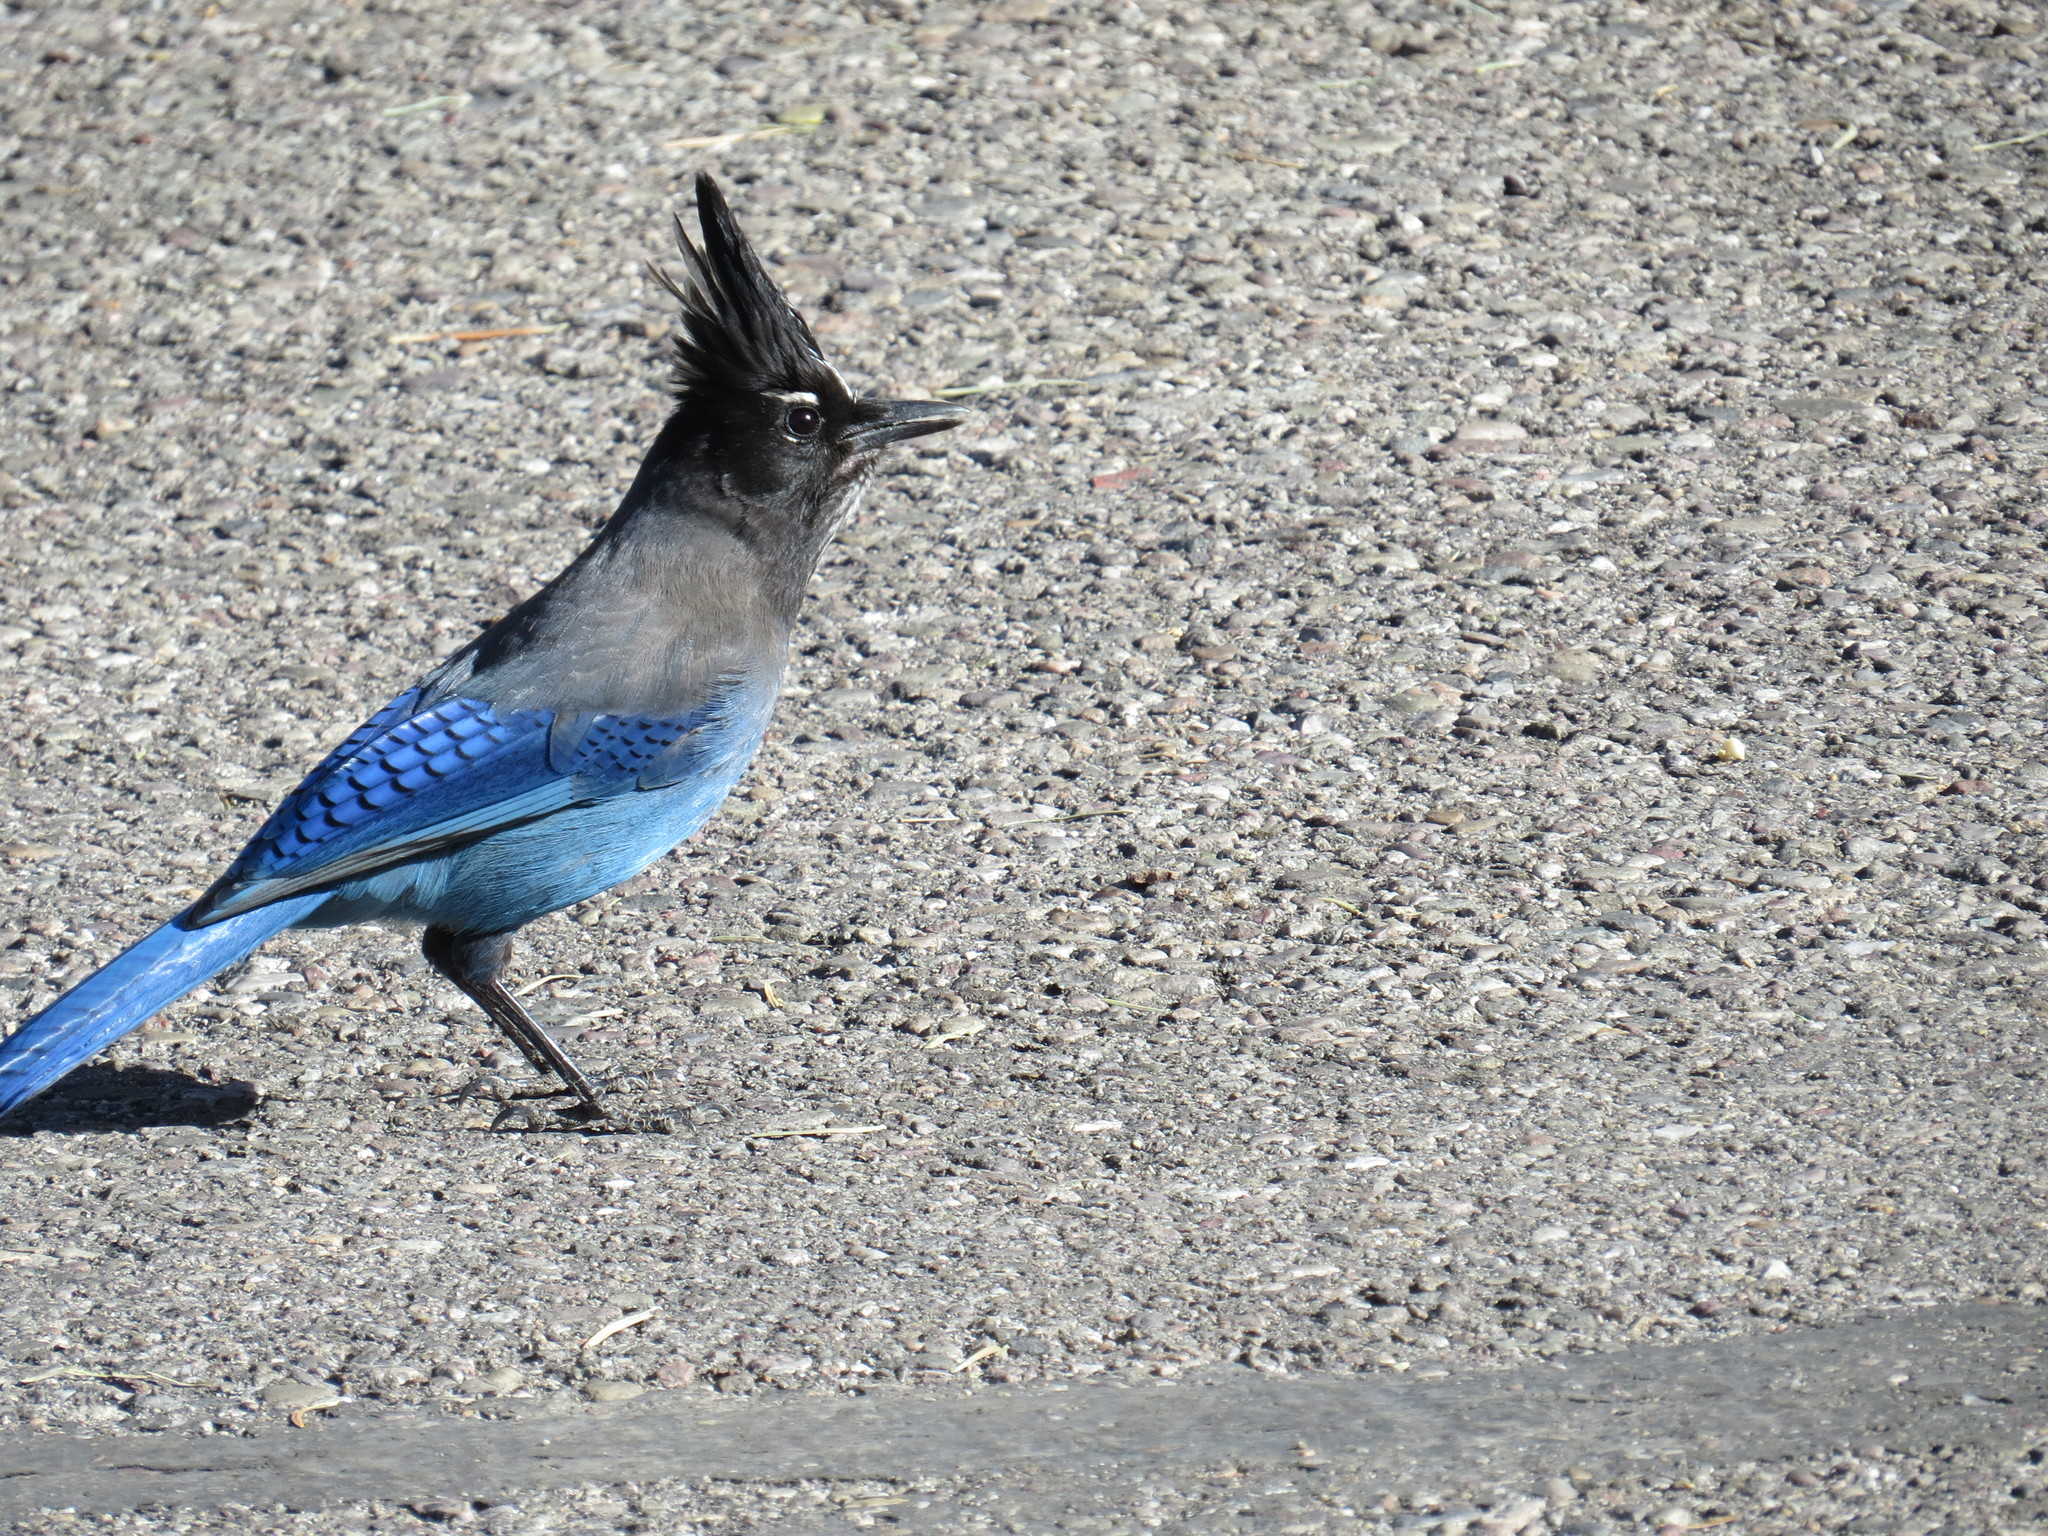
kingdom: Animalia
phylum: Chordata
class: Aves
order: Passeriformes
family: Corvidae
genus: Cyanocitta
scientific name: Cyanocitta stelleri
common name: Steller's jay
